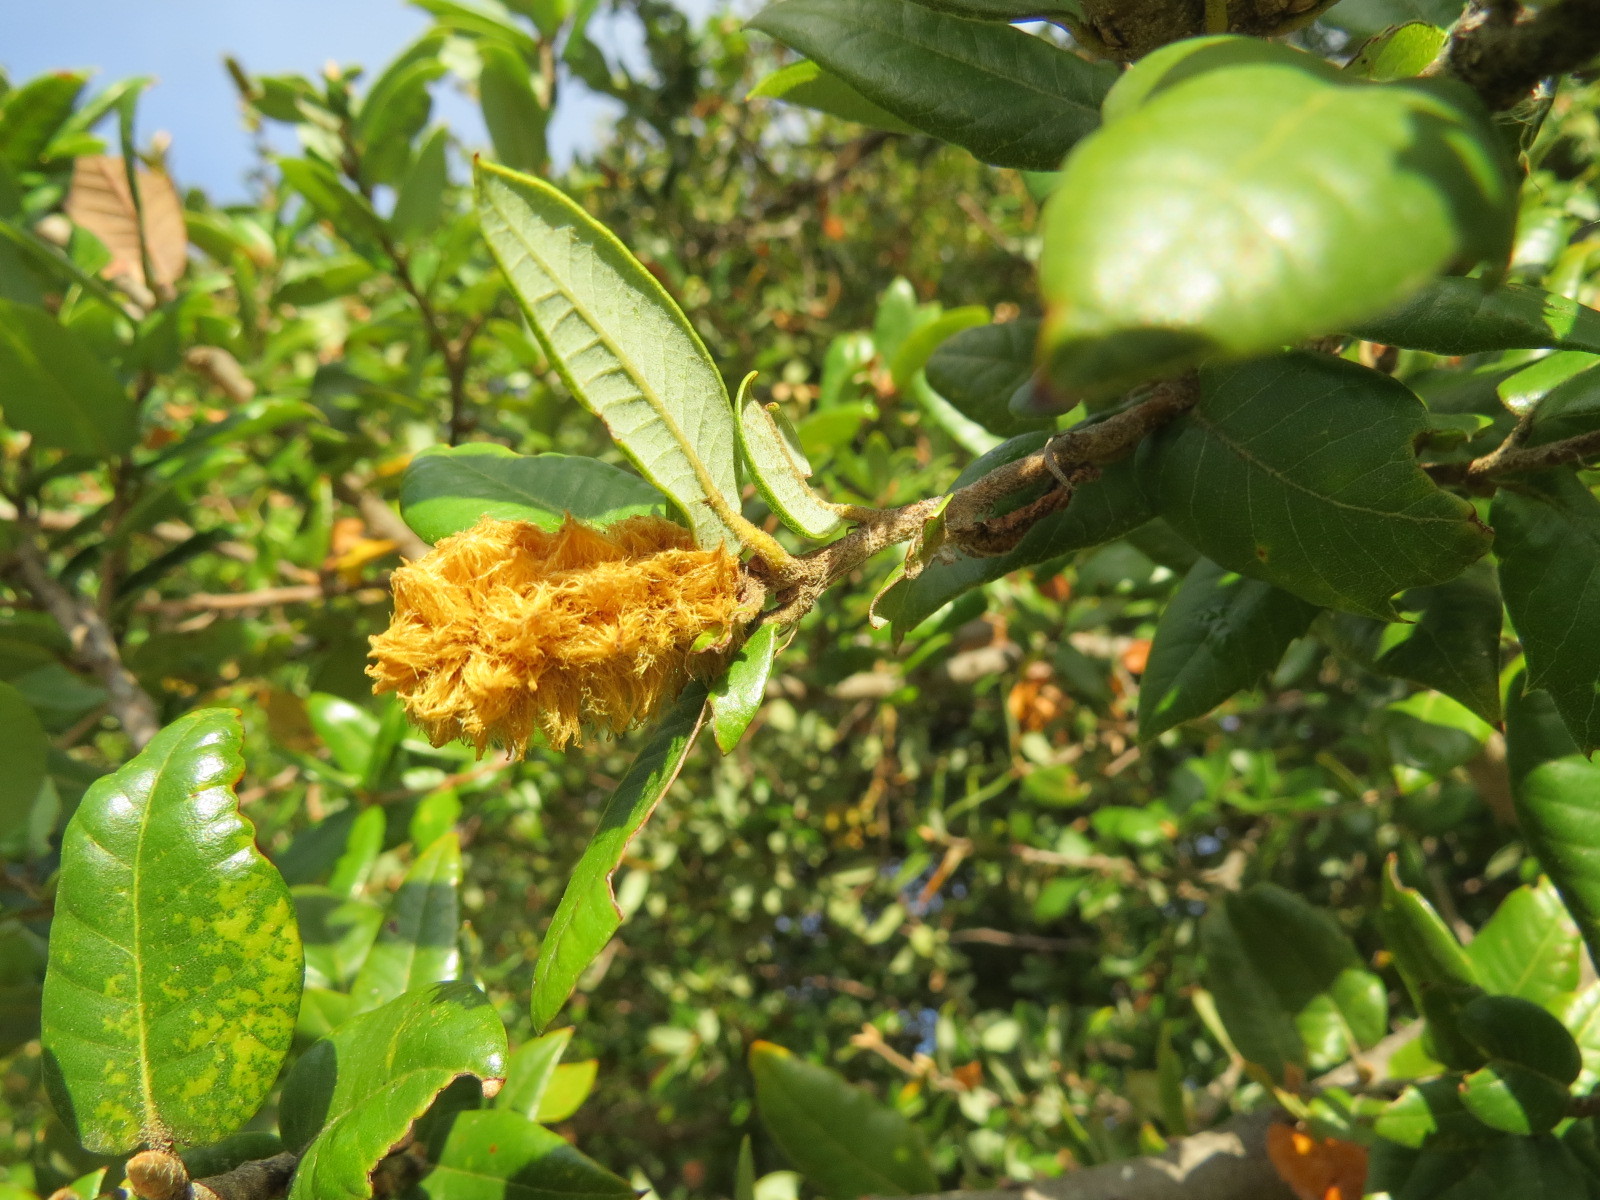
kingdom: Animalia
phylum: Arthropoda
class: Insecta
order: Hymenoptera
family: Cynipidae
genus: Heteroecus
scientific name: Heteroecus
